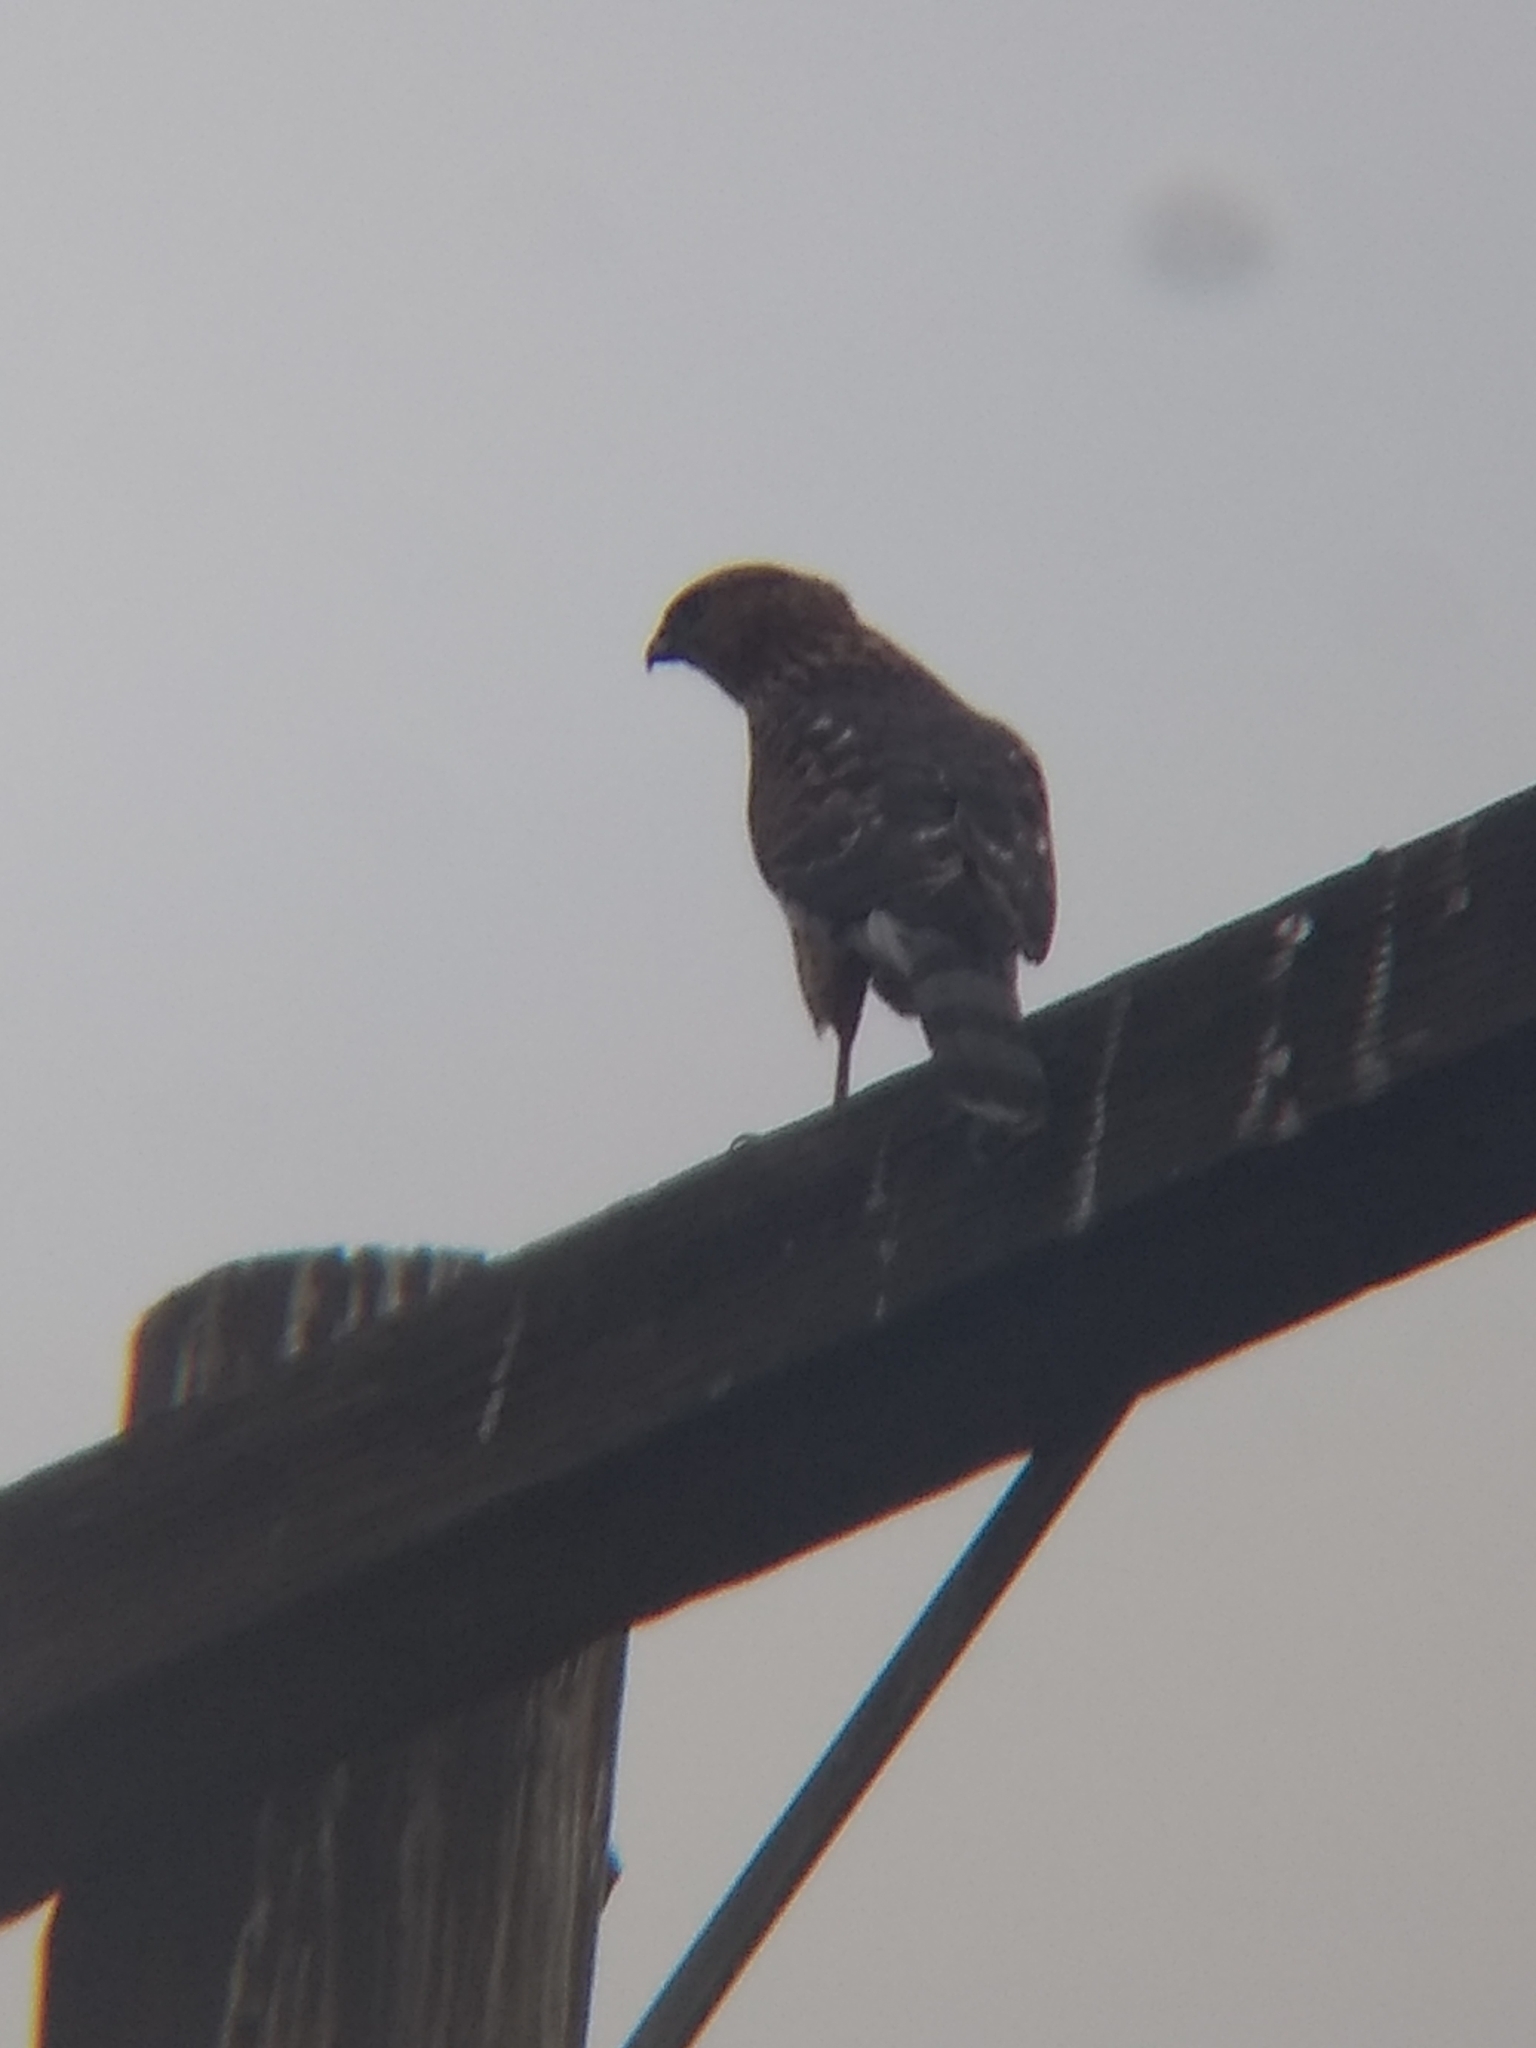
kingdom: Animalia
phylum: Chordata
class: Aves
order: Accipitriformes
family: Accipitridae
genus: Accipiter
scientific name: Accipiter cooperii
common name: Cooper's hawk
